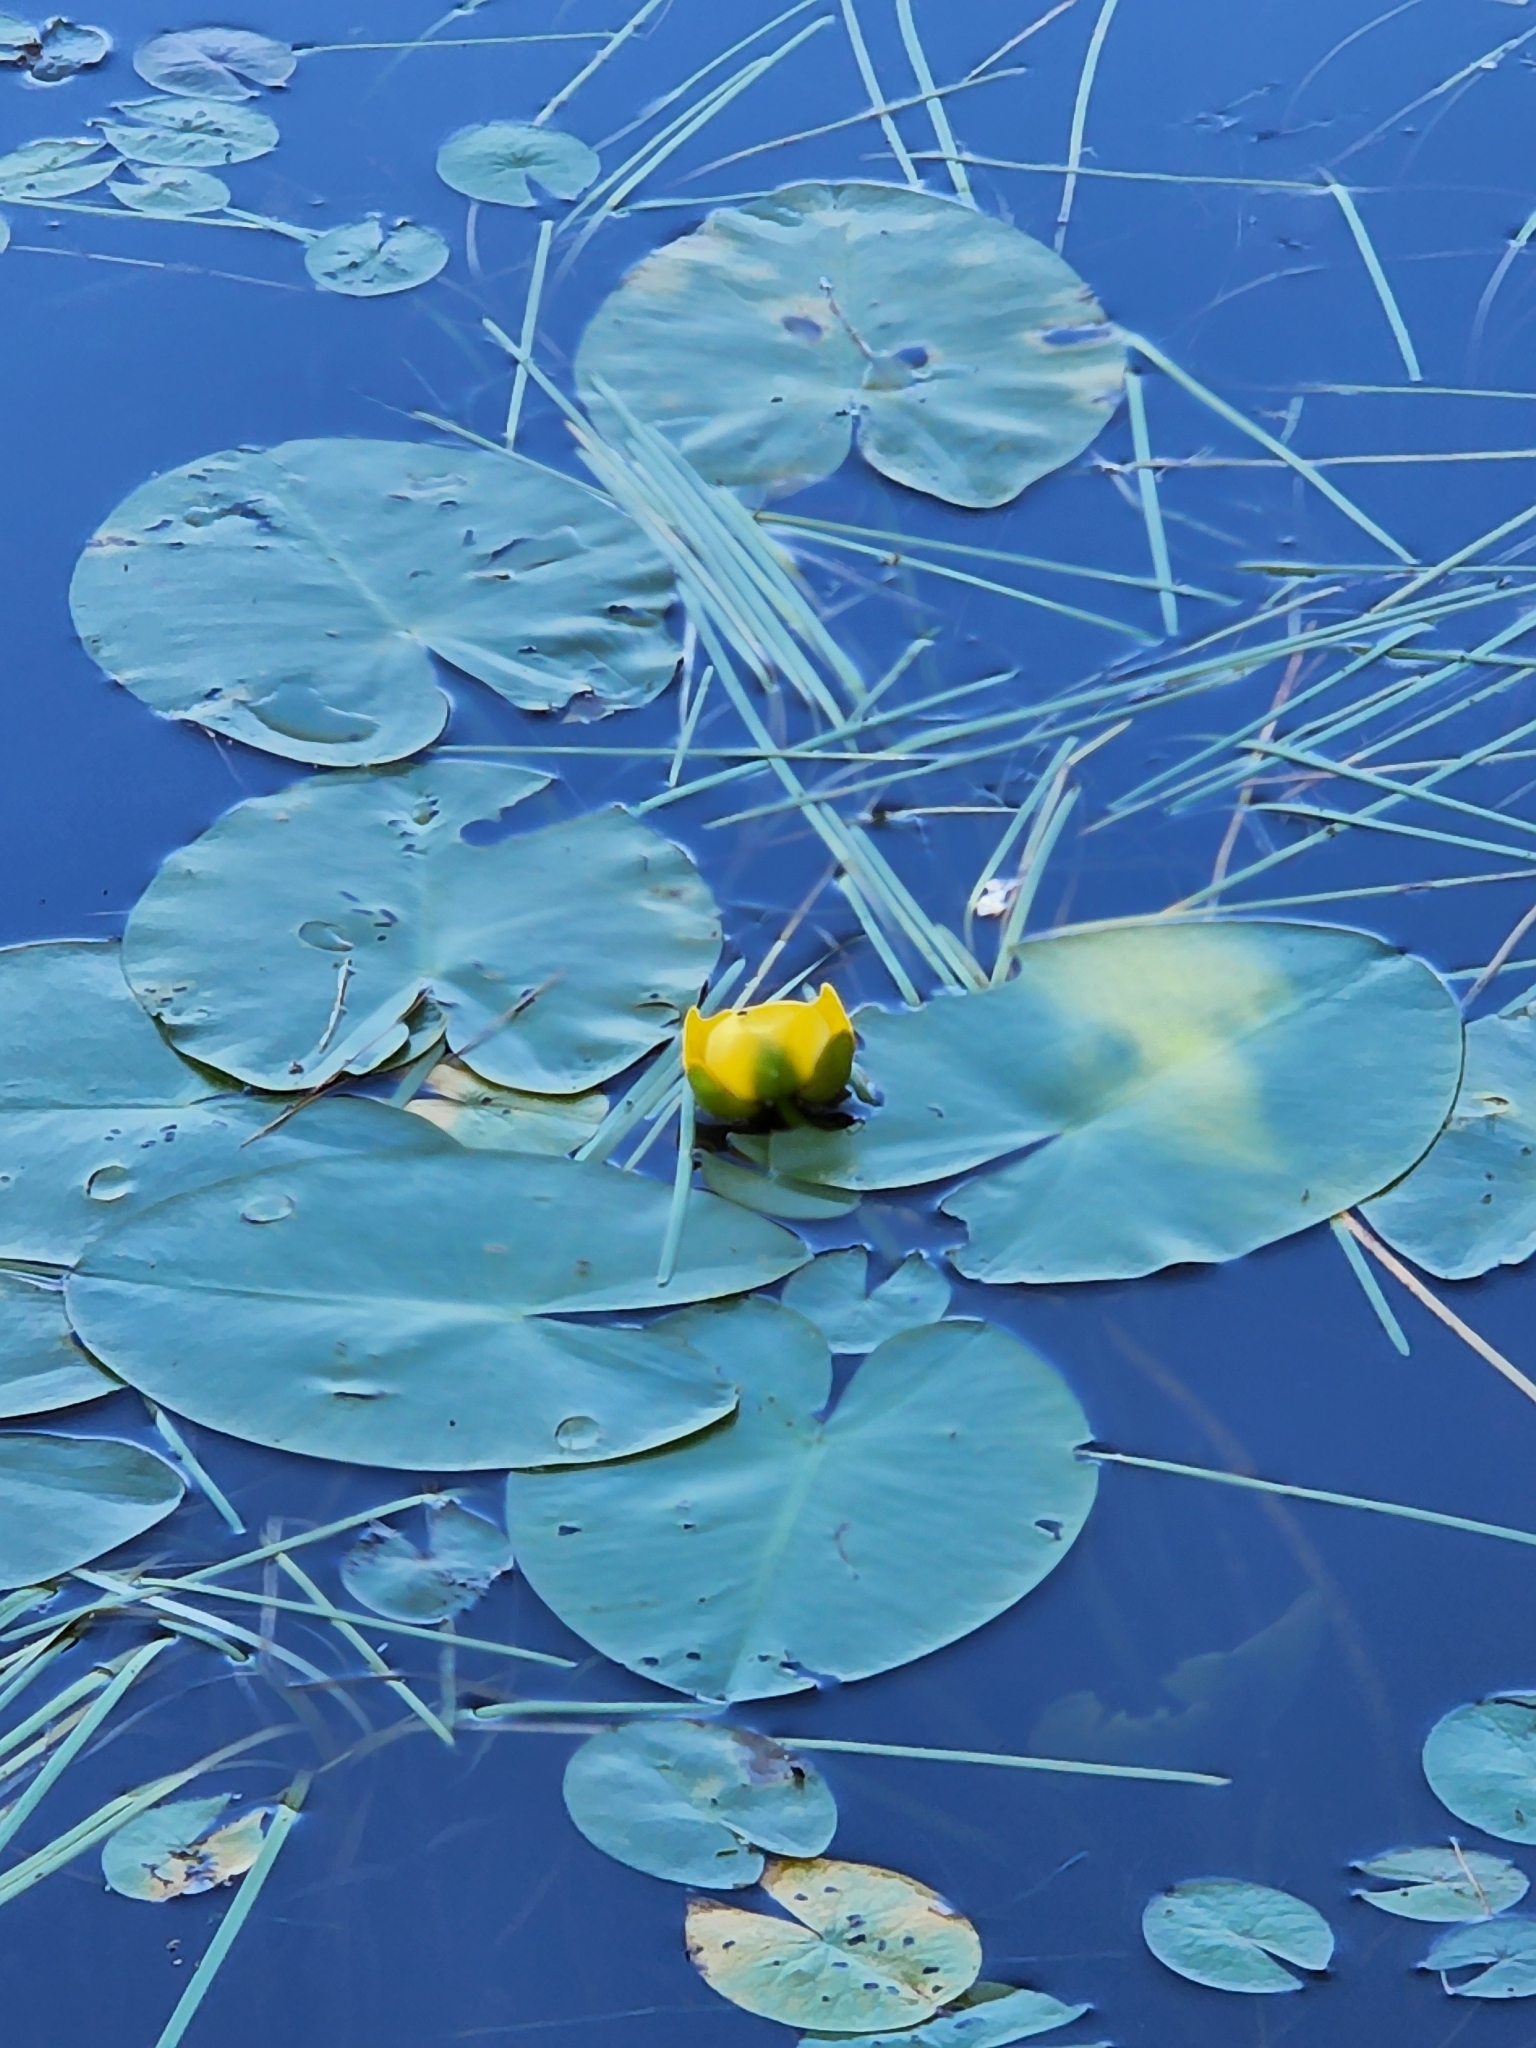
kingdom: Plantae
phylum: Tracheophyta
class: Magnoliopsida
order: Nymphaeales
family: Nymphaeaceae
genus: Nuphar
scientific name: Nuphar variegata
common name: Beaver-root
